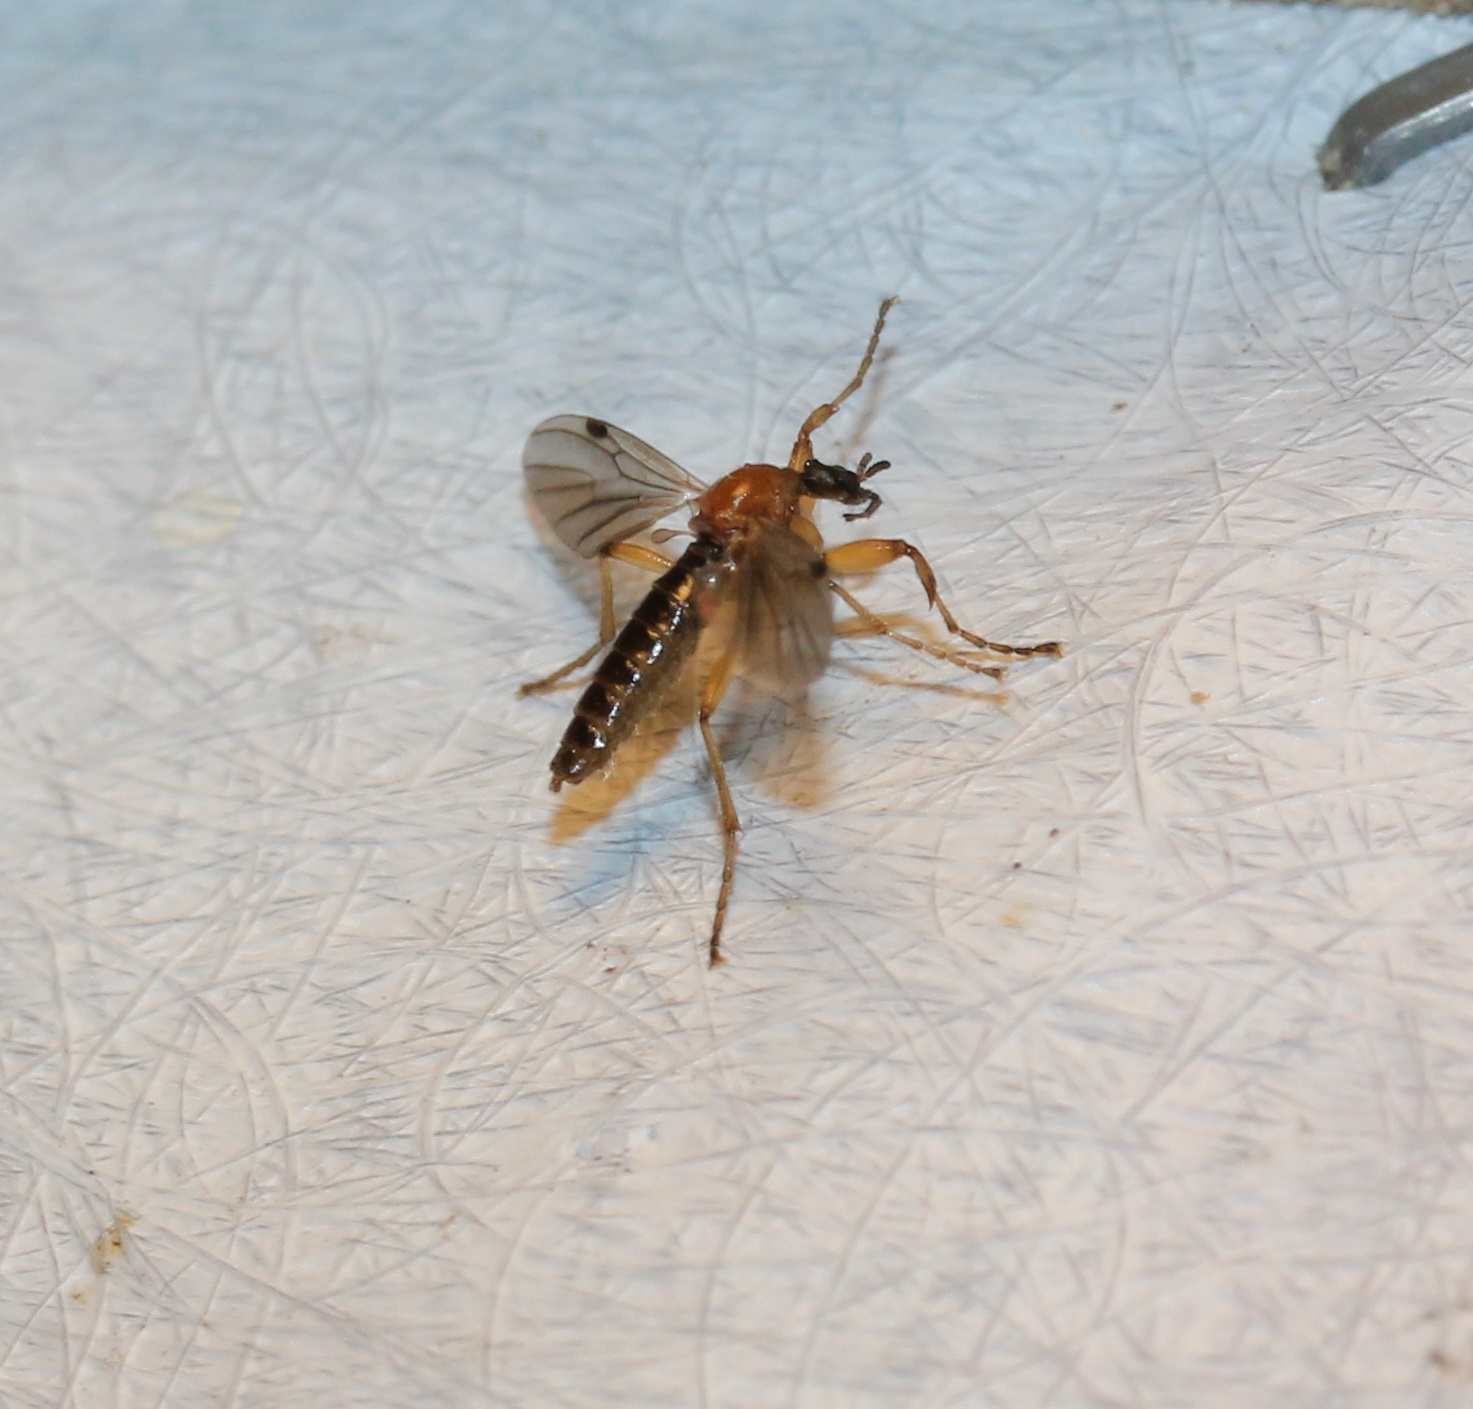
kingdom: Animalia
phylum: Arthropoda
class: Insecta
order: Diptera
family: Bibionidae
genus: Bibio
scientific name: Bibio townesi
